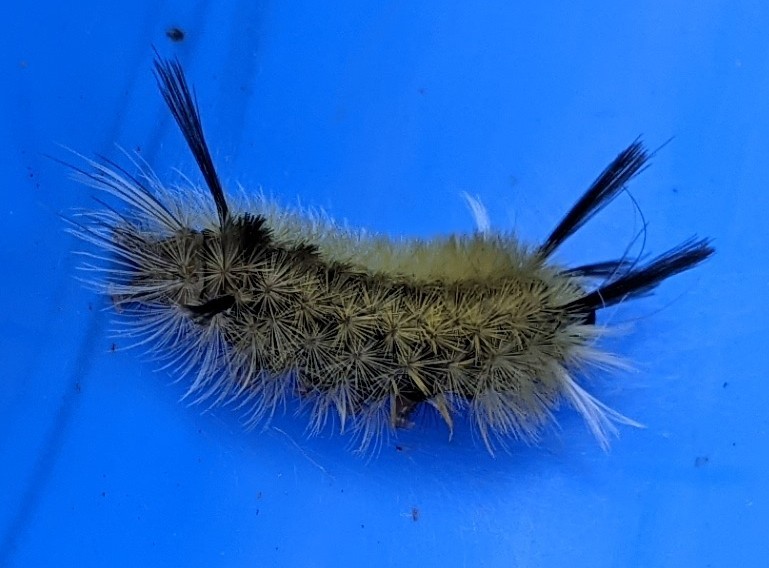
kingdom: Animalia
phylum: Arthropoda
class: Insecta
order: Lepidoptera
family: Erebidae
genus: Halysidota
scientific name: Halysidota tessellaris
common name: Banded tussock moth
